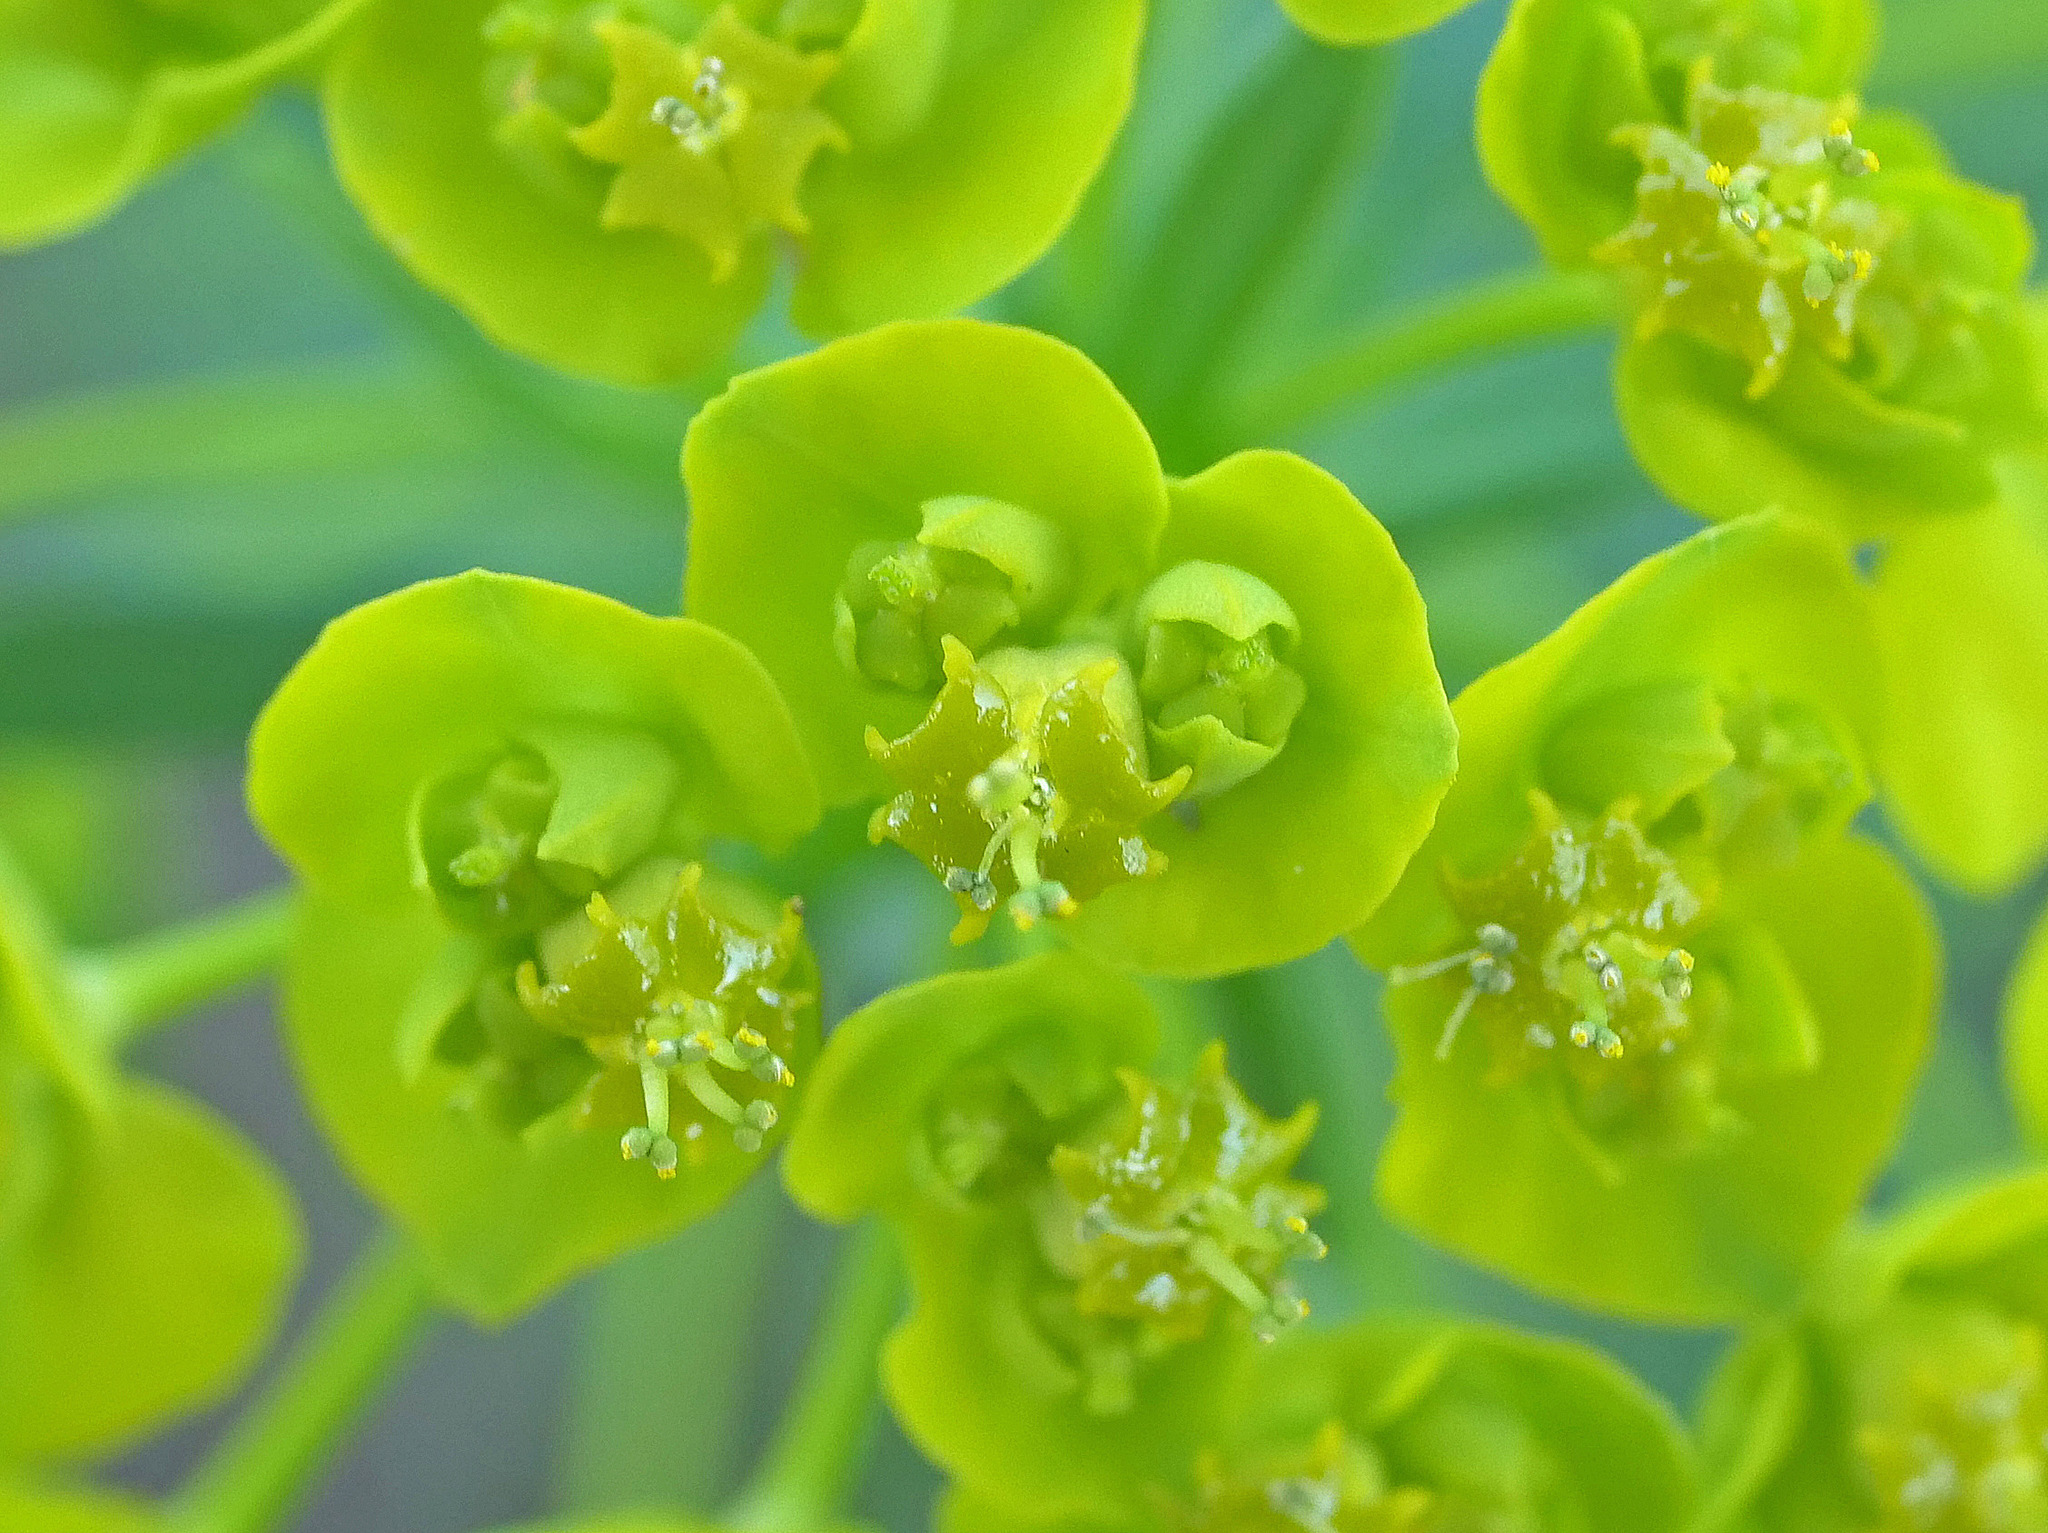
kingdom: Plantae
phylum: Tracheophyta
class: Magnoliopsida
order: Malpighiales
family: Euphorbiaceae
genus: Euphorbia
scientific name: Euphorbia cyparissias
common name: Cypress spurge
